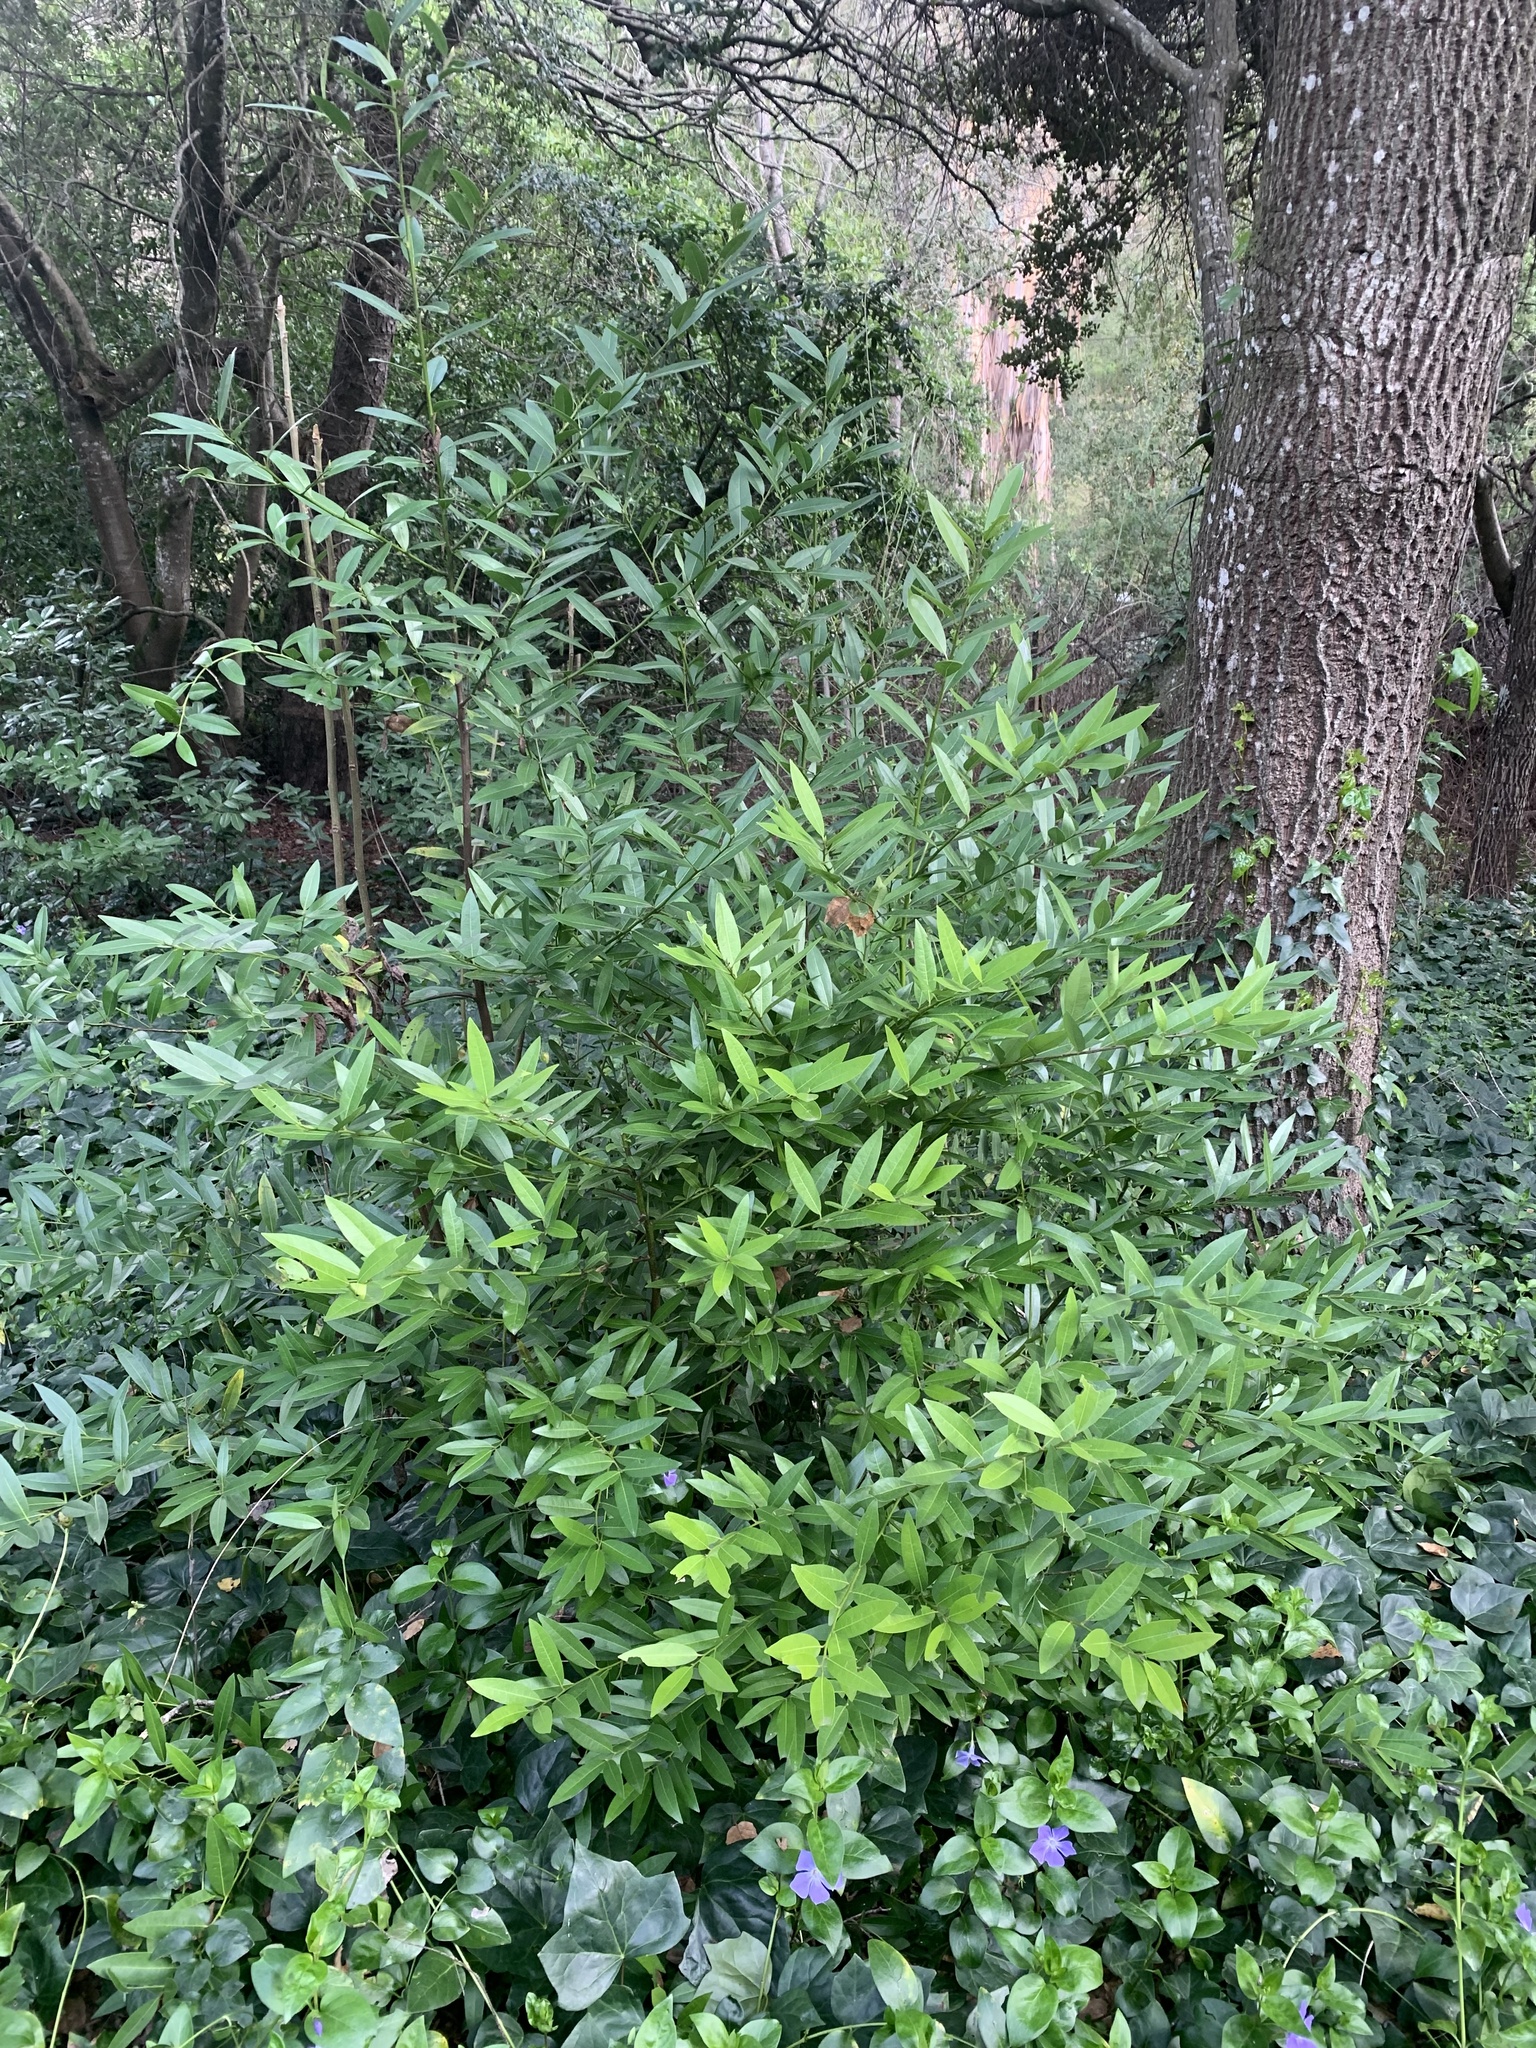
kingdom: Plantae
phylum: Tracheophyta
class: Magnoliopsida
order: Laurales
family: Lauraceae
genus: Umbellularia
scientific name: Umbellularia californica
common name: California bay
